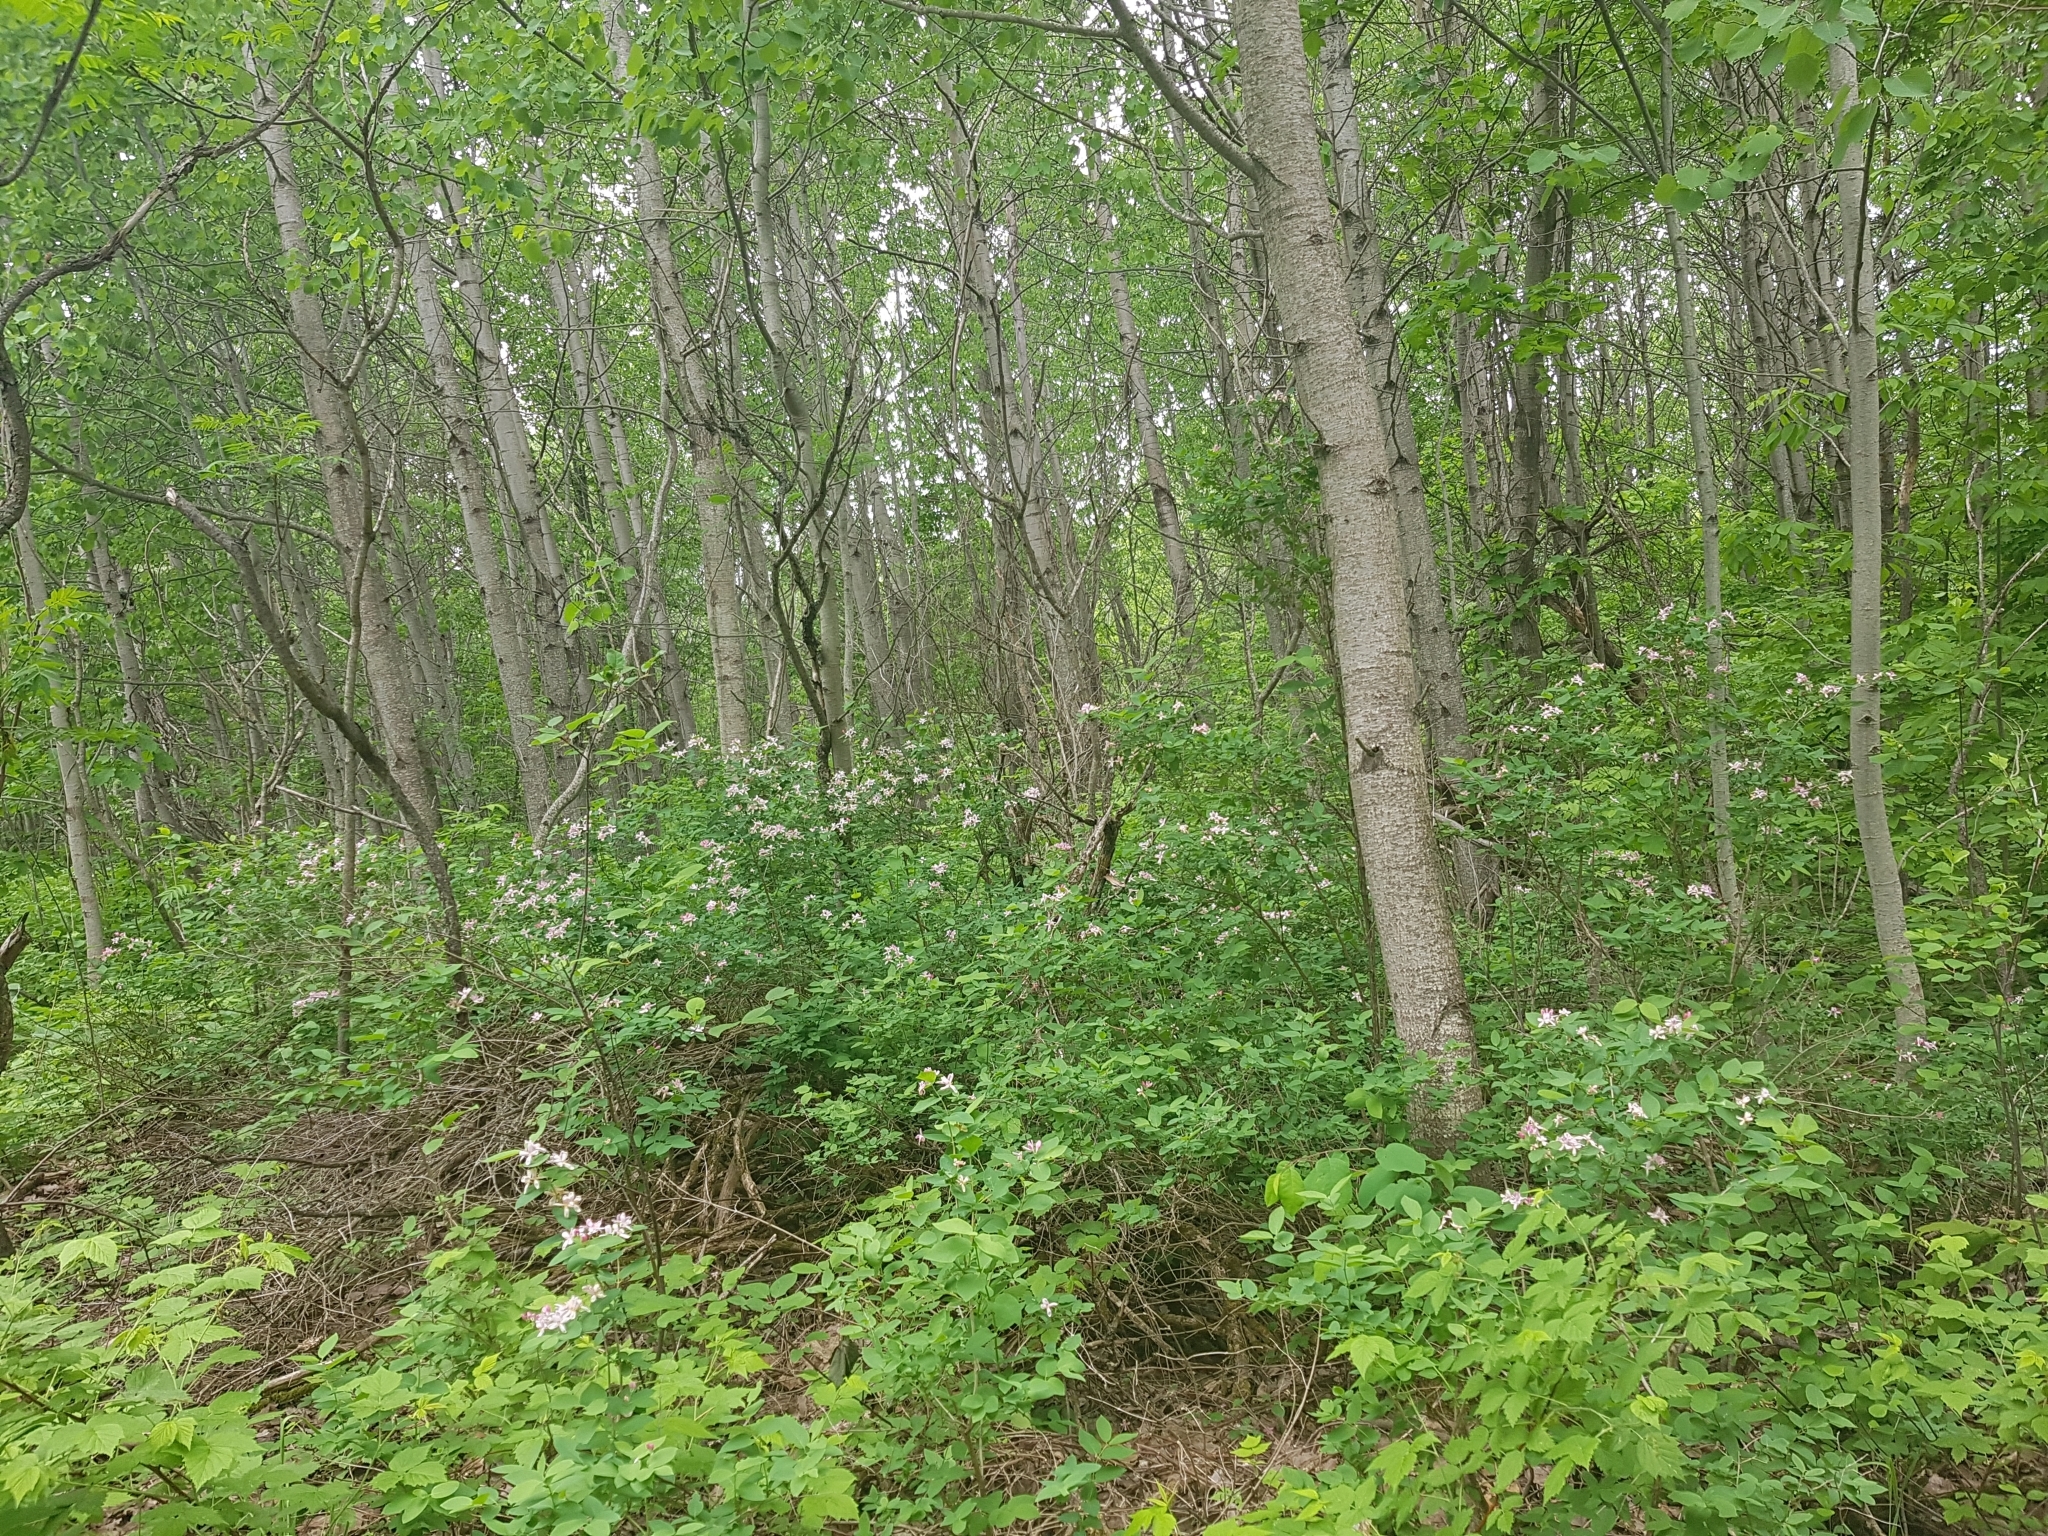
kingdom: Plantae
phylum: Tracheophyta
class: Magnoliopsida
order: Dipsacales
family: Caprifoliaceae
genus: Lonicera
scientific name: Lonicera tatarica
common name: Tatarian honeysuckle
